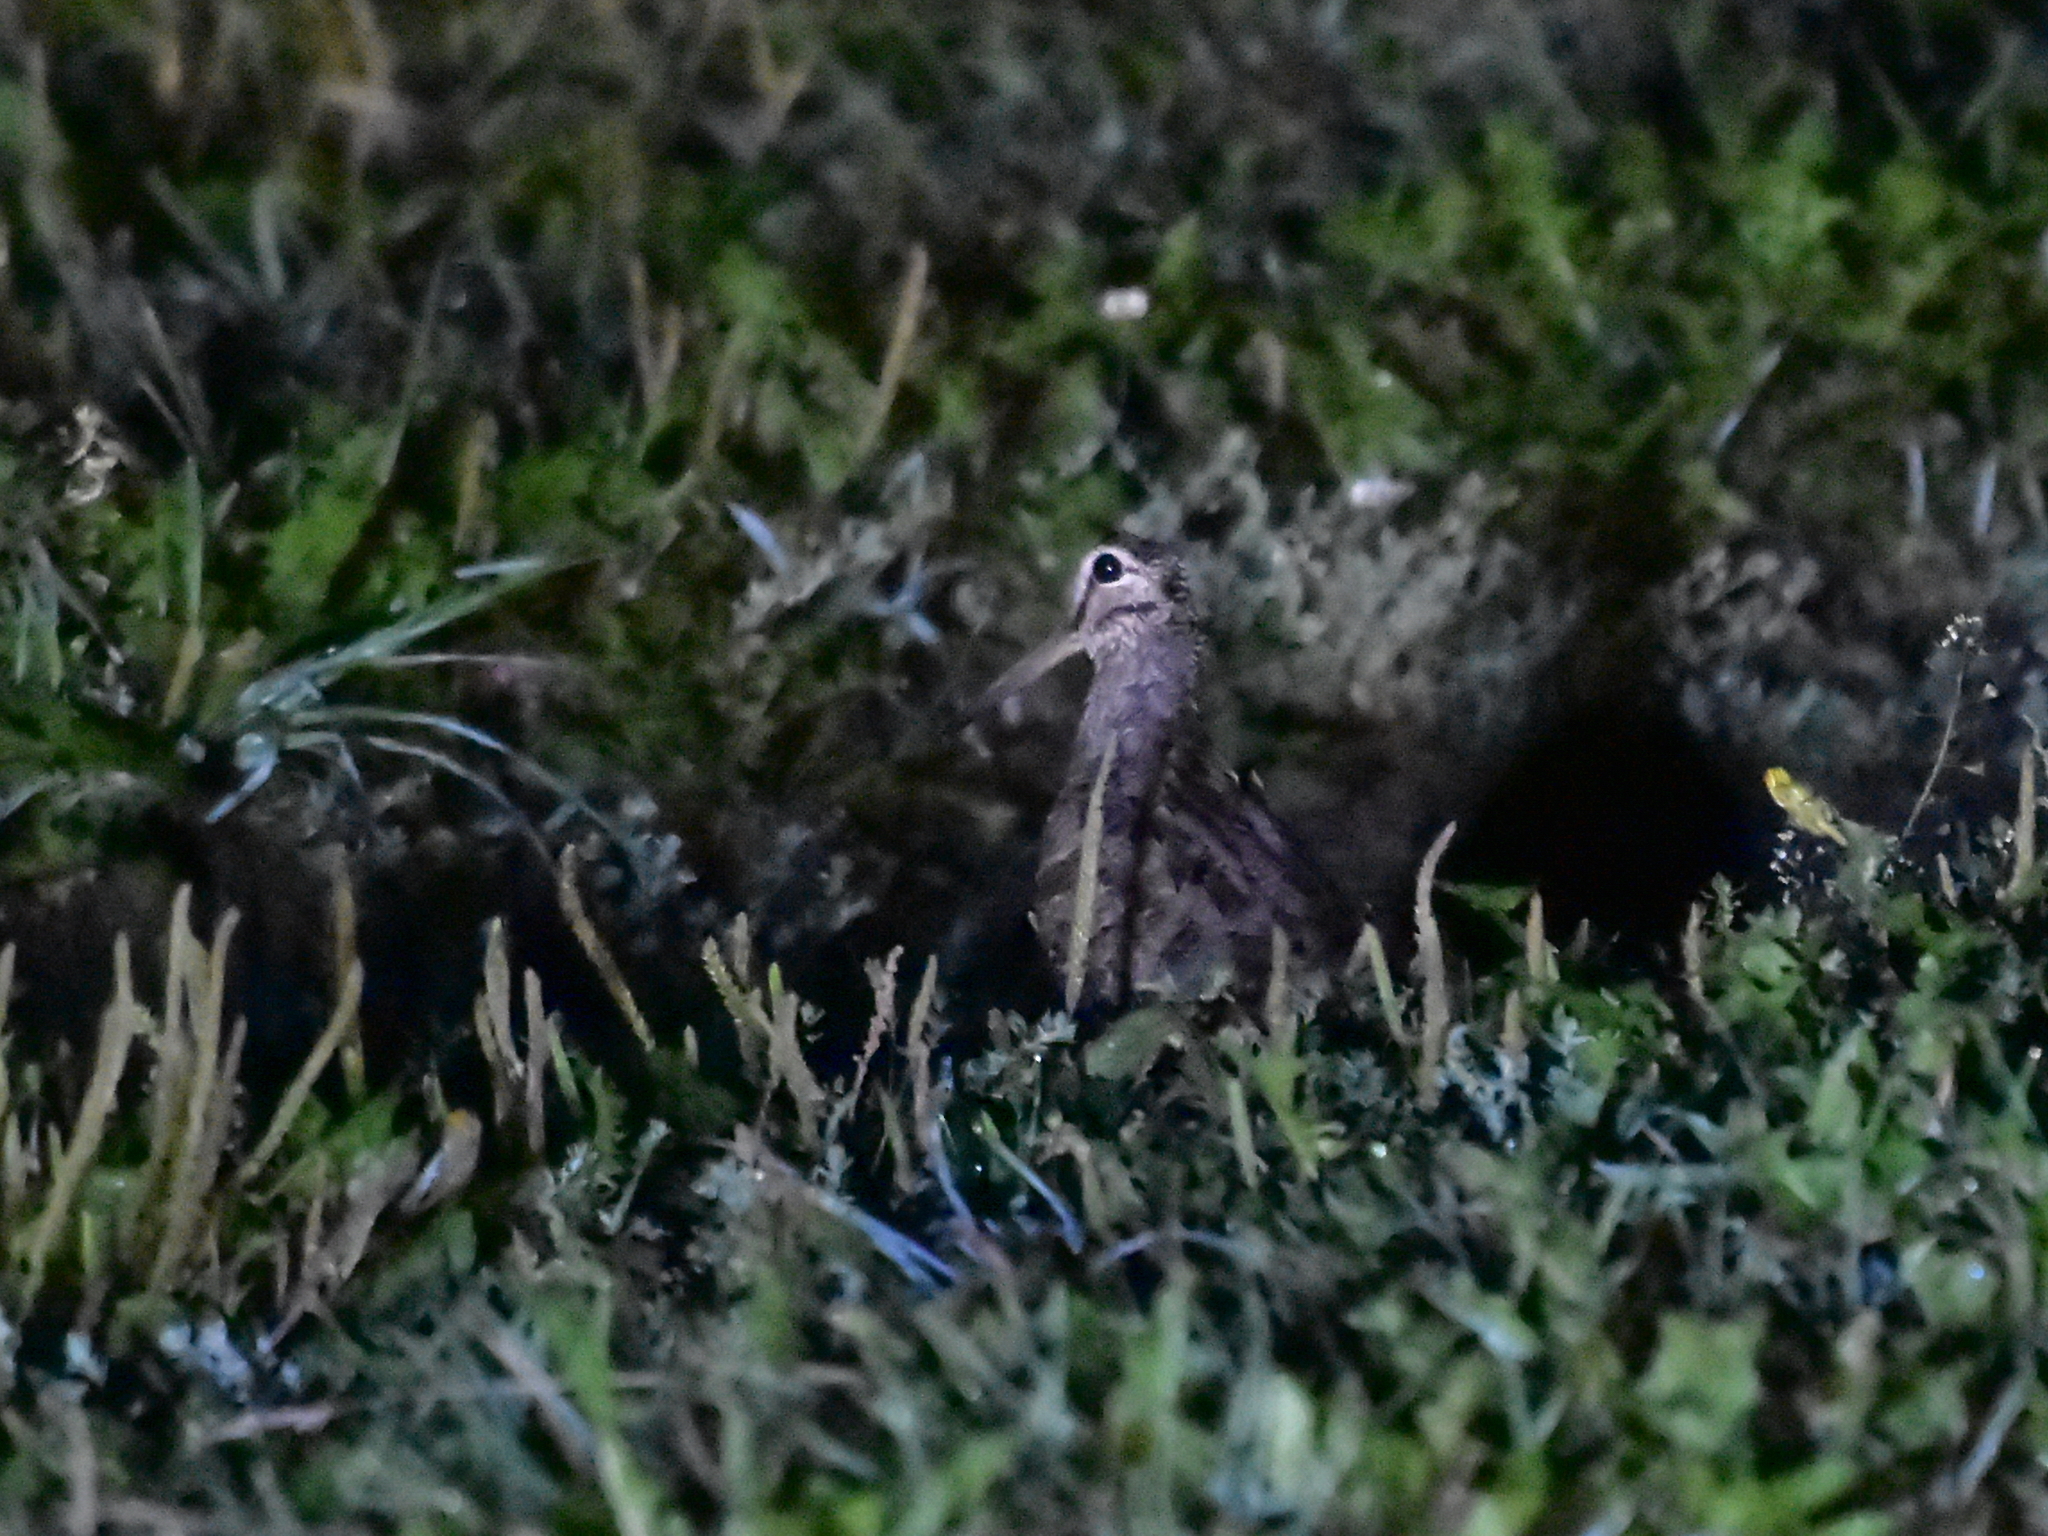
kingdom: Animalia
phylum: Chordata
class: Aves
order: Charadriiformes
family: Scolopacidae
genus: Scolopax
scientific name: Scolopax rusticola
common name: Eurasian woodcock
